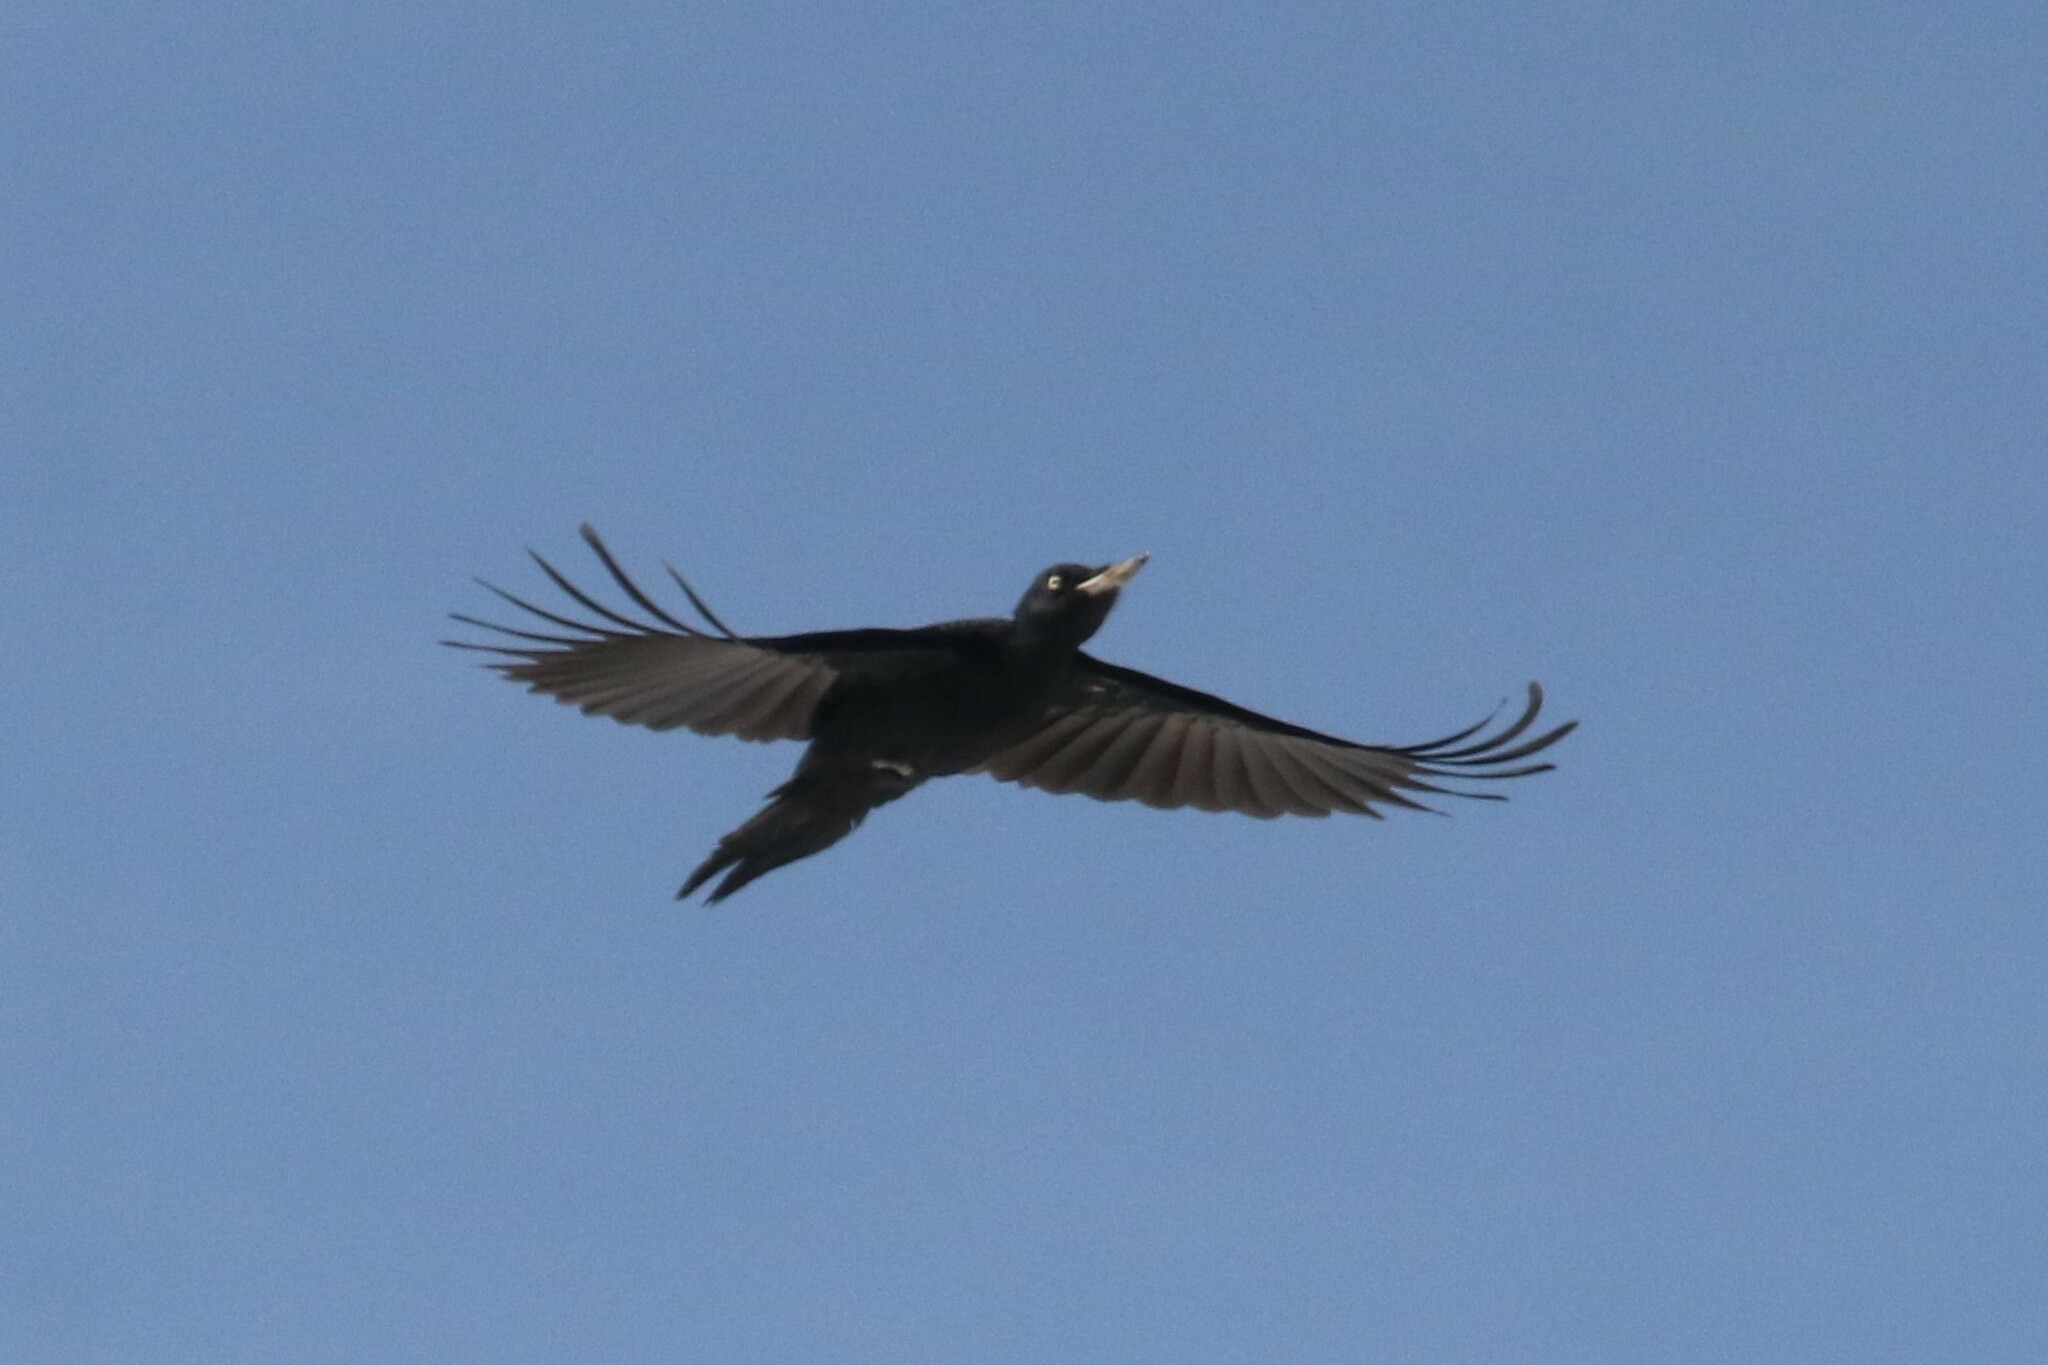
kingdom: Animalia
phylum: Chordata
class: Aves
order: Piciformes
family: Picidae
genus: Dryocopus
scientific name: Dryocopus martius
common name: Black woodpecker
